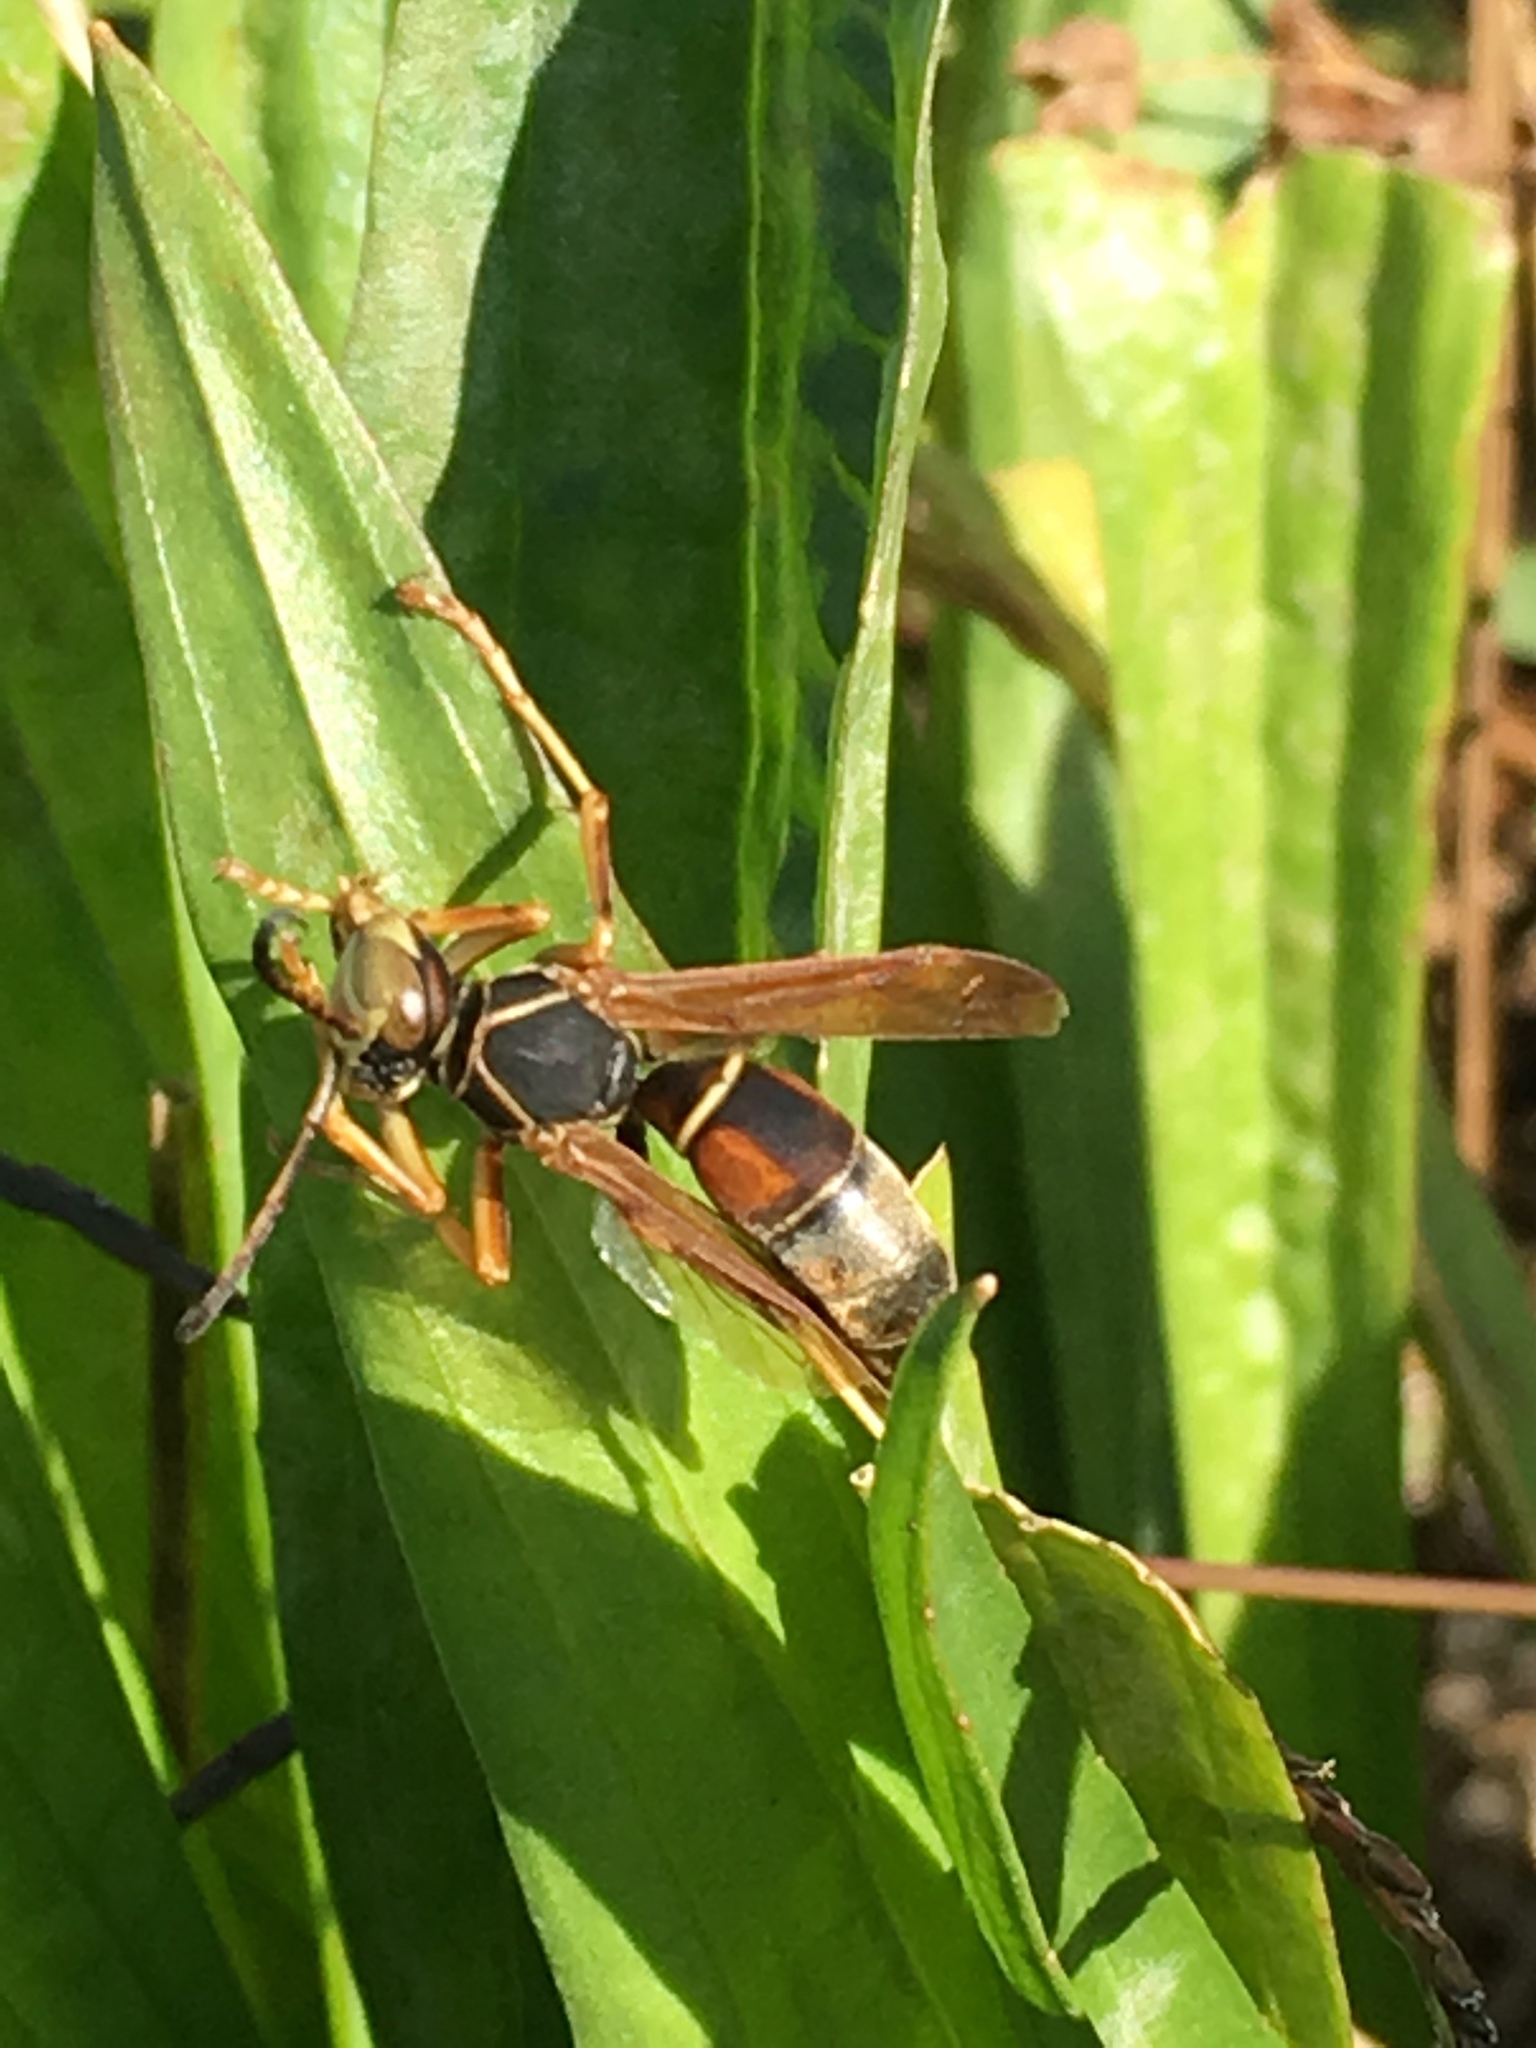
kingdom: Animalia
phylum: Arthropoda
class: Insecta
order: Hymenoptera
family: Eumenidae
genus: Polistes
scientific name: Polistes fuscatus
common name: Dark paper wasp
